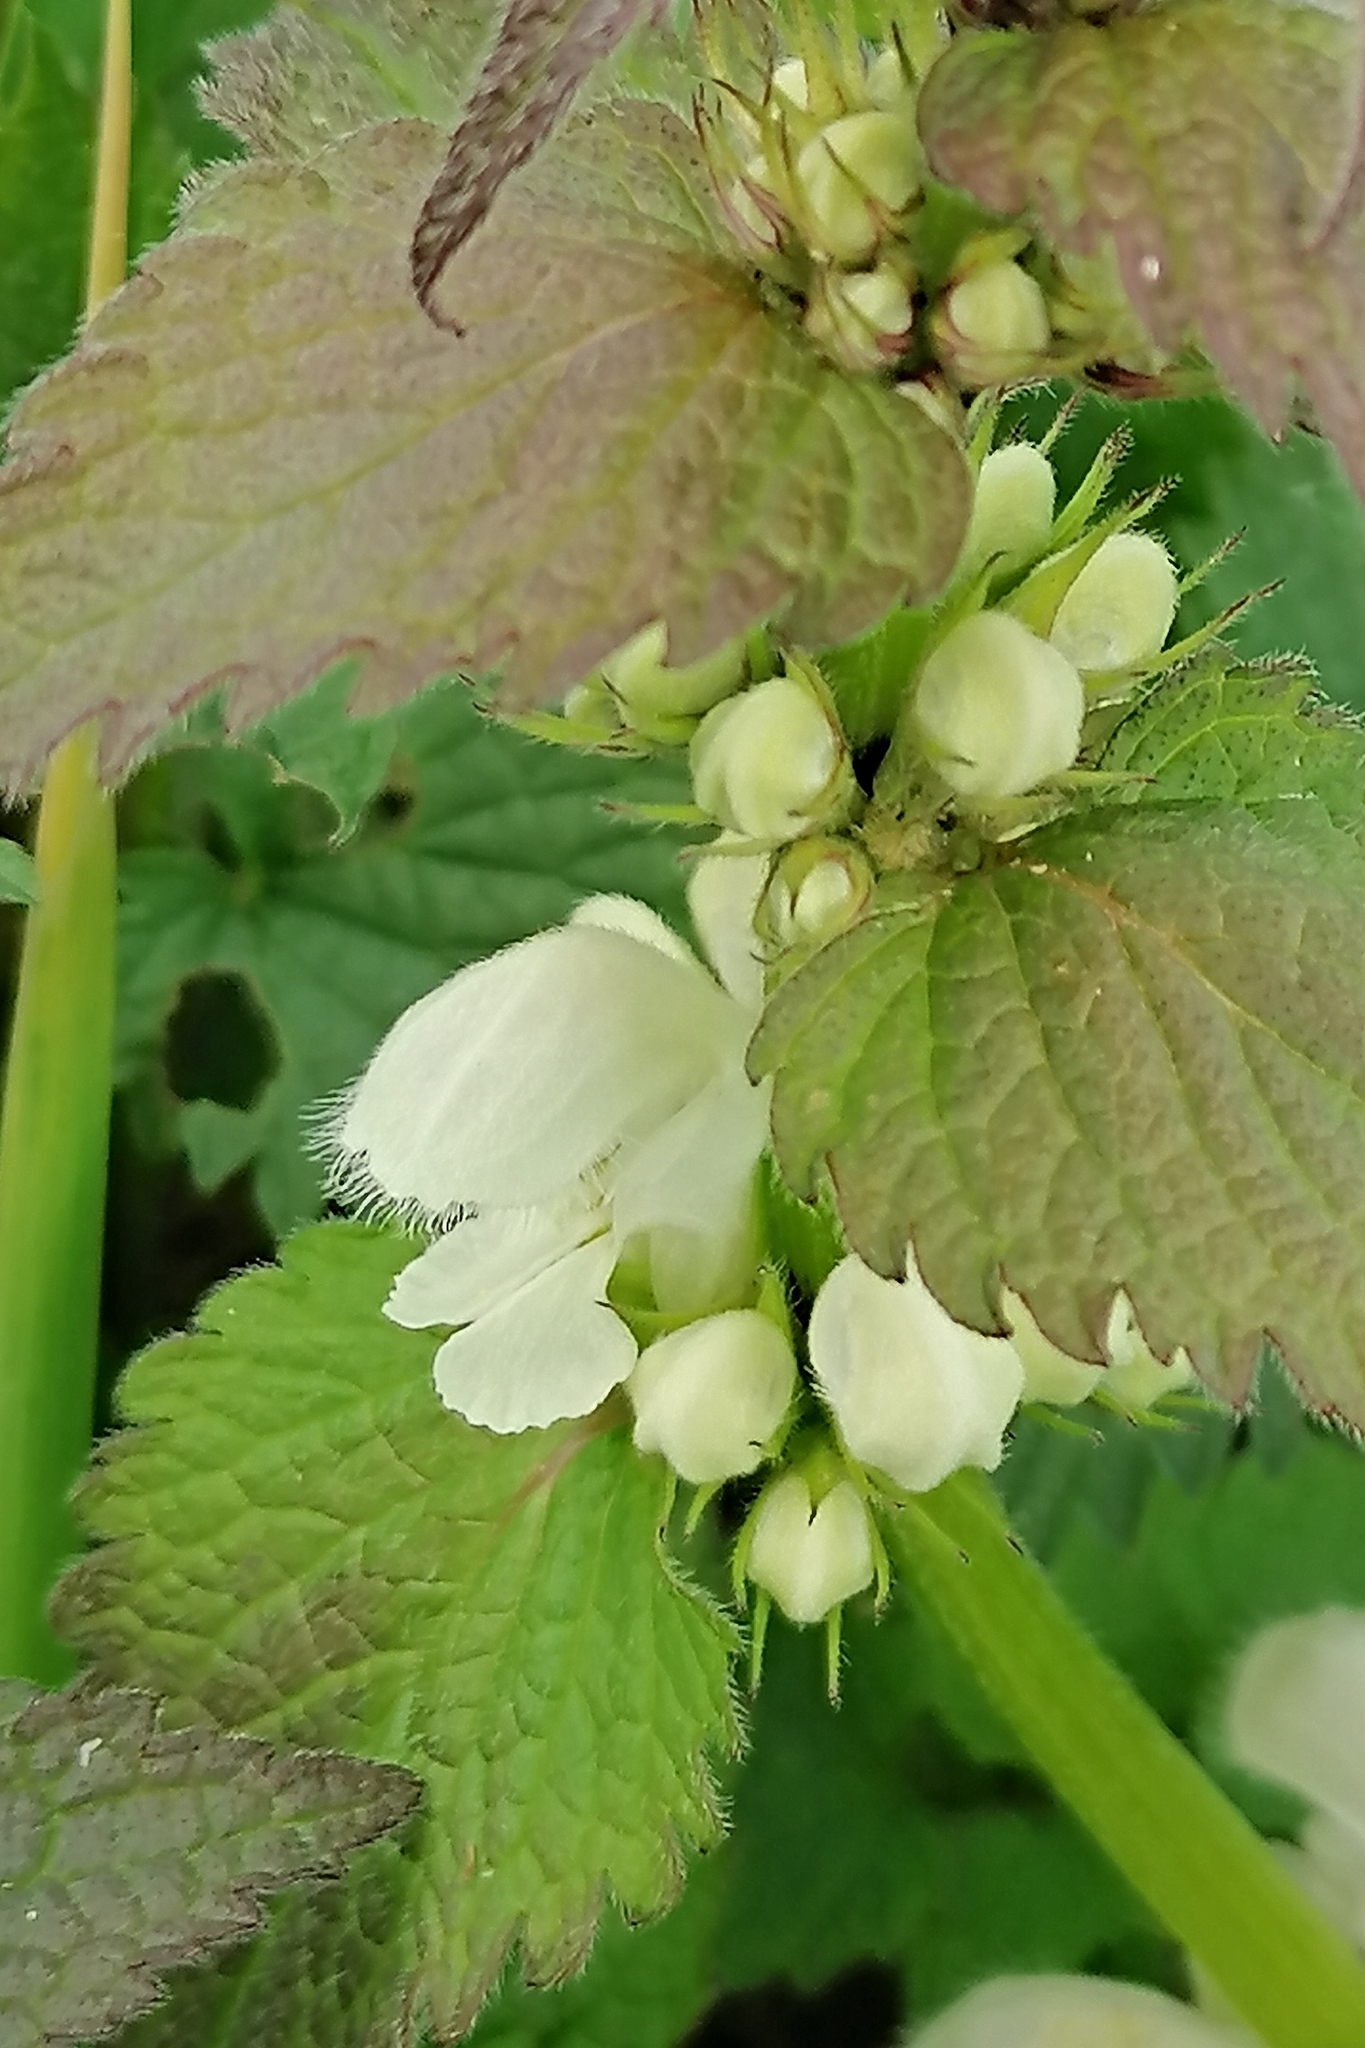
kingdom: Plantae
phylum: Tracheophyta
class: Magnoliopsida
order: Lamiales
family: Lamiaceae
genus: Lamium
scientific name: Lamium album
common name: White dead-nettle
